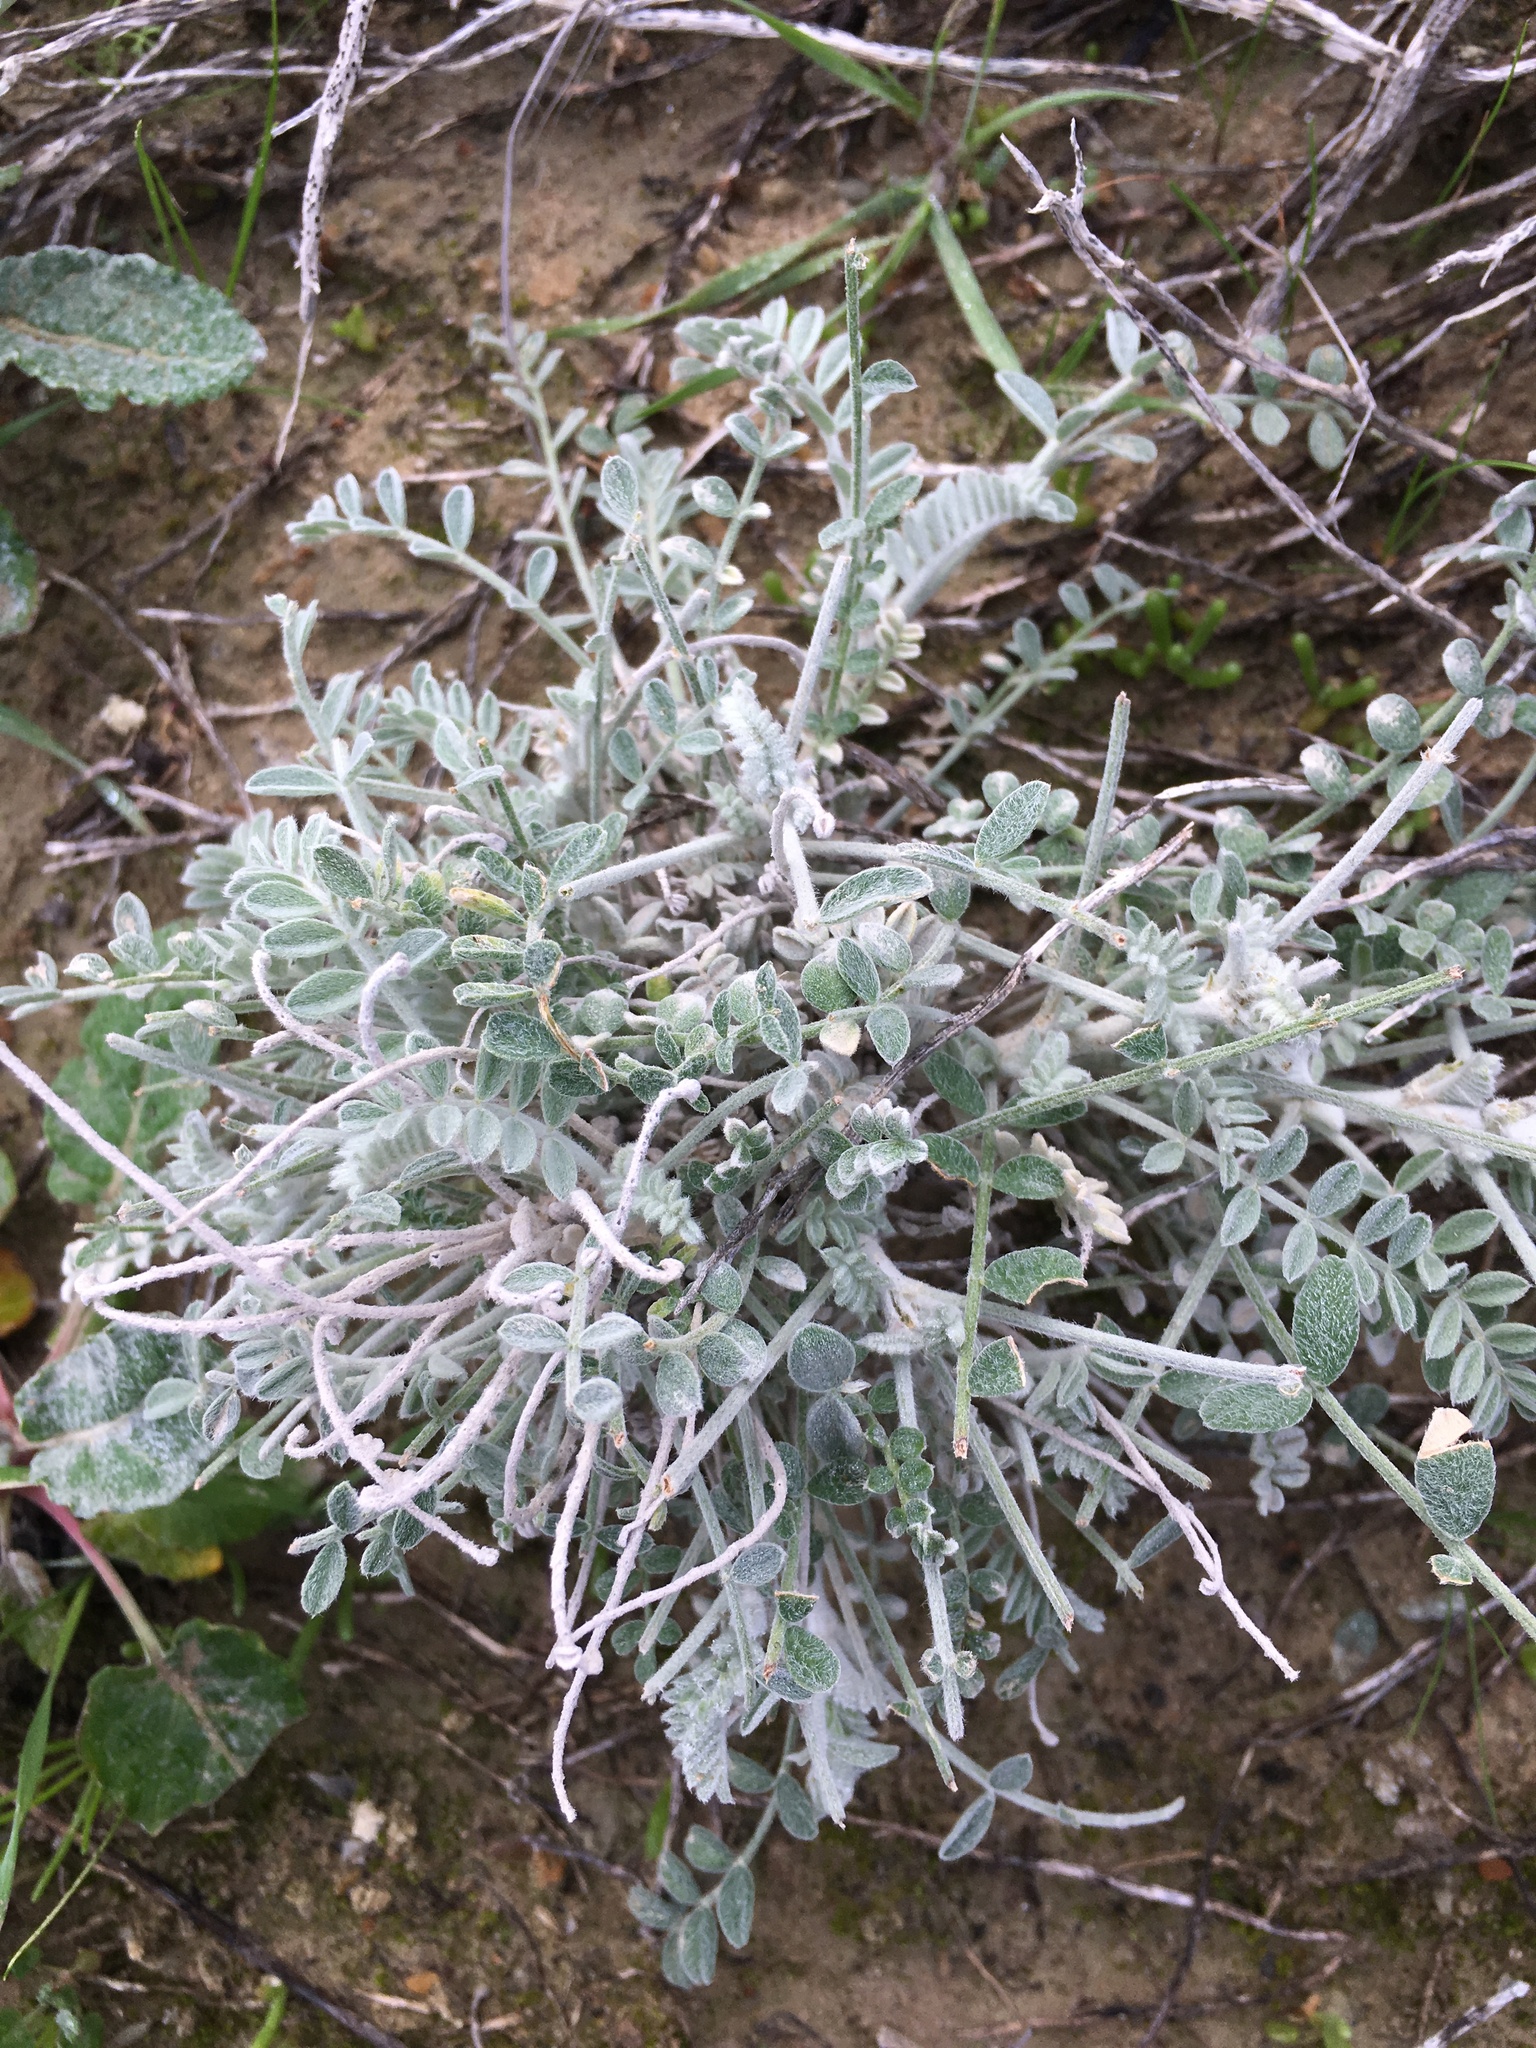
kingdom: Plantae
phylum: Tracheophyta
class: Magnoliopsida
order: Fabales
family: Fabaceae
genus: Astragalus
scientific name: Astragalus traskiae
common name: Trask's milk-vetch
